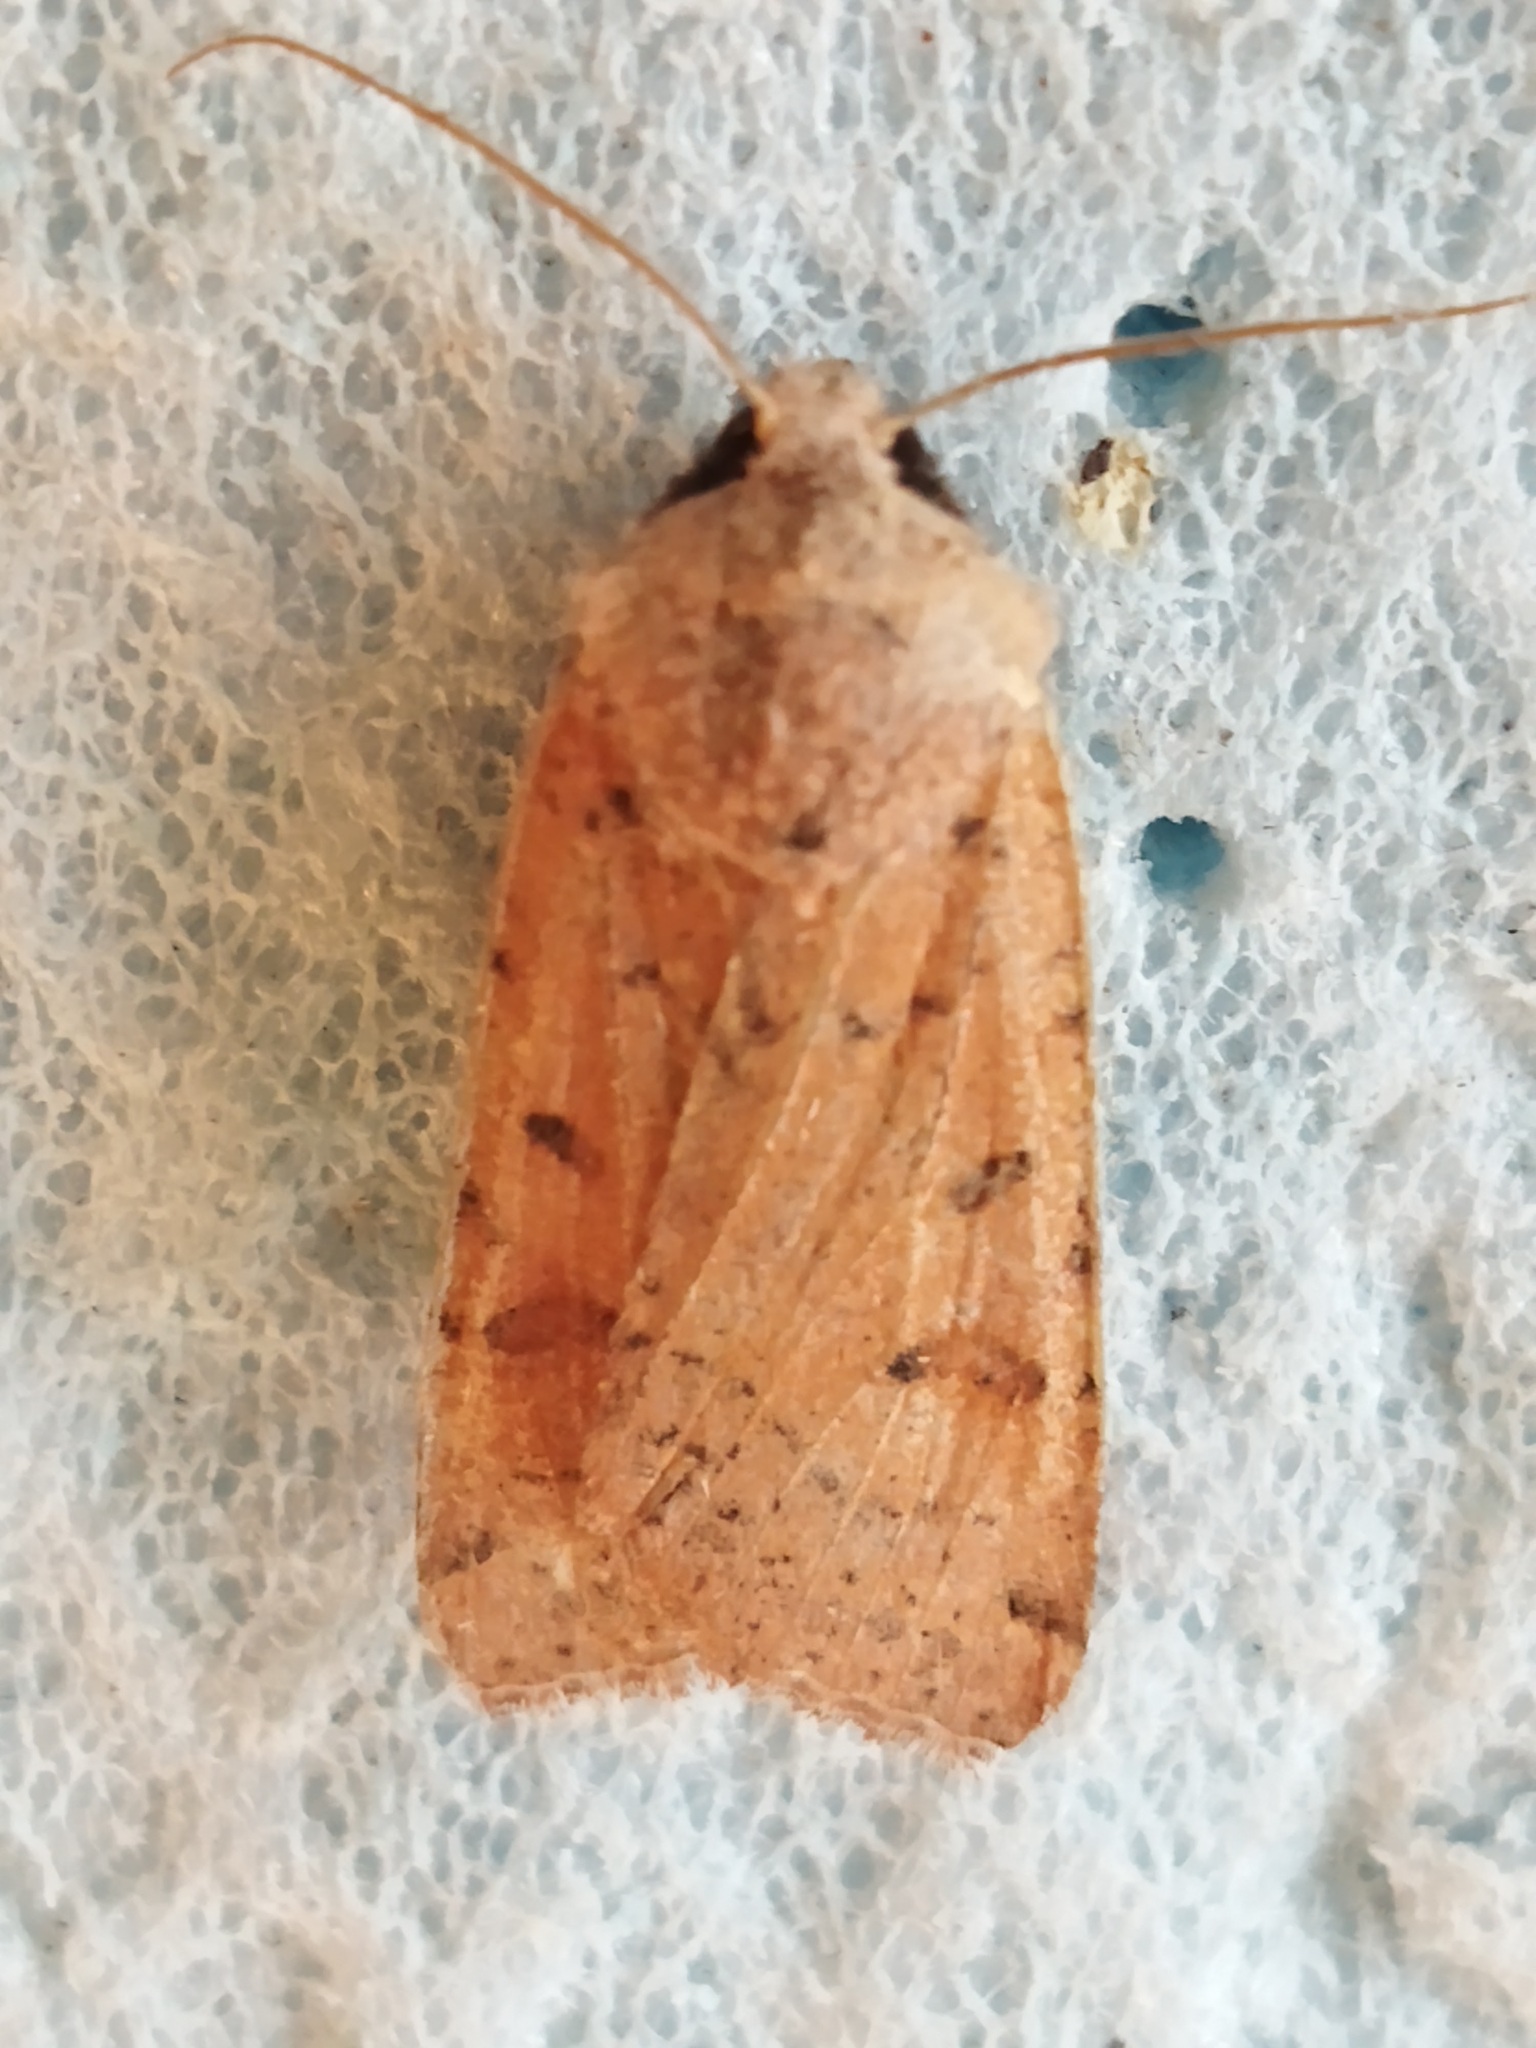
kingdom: Animalia
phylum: Arthropoda
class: Insecta
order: Lepidoptera
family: Noctuidae
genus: Agrochola
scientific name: Agrochola lychnidis
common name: Beaded chestnut
